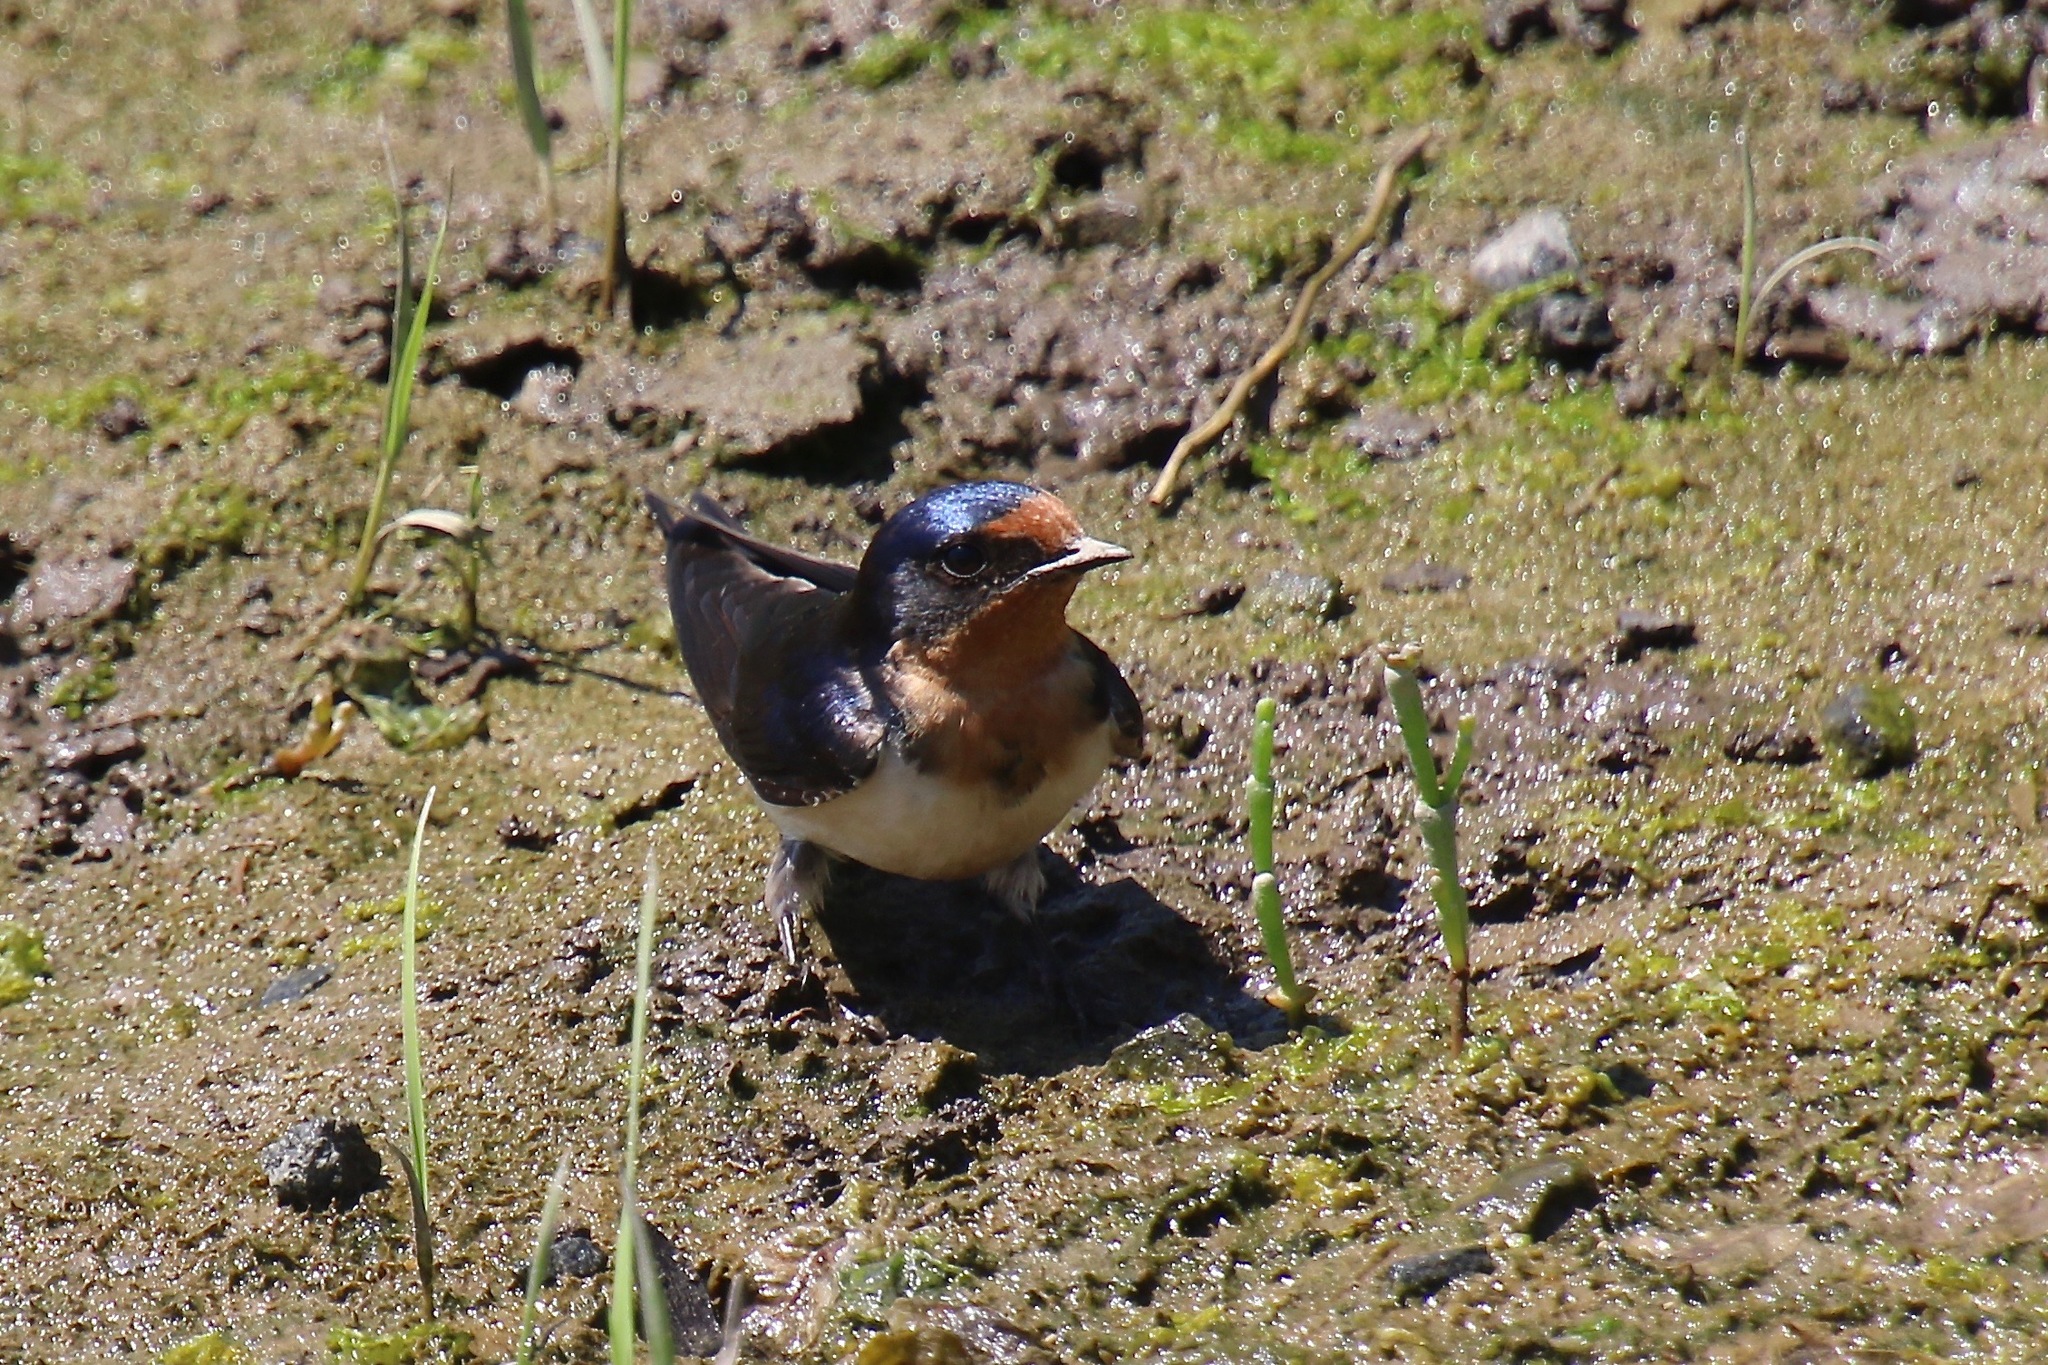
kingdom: Animalia
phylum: Chordata
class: Aves
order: Passeriformes
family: Hirundinidae
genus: Hirundo
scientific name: Hirundo rustica
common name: Barn swallow
